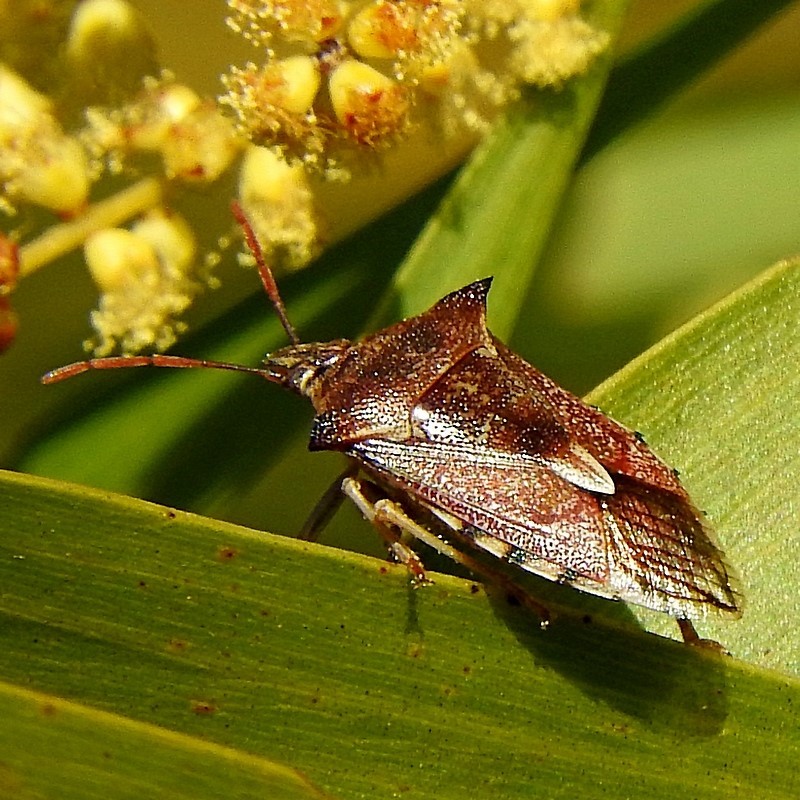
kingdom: Animalia
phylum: Arthropoda
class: Insecta
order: Hemiptera
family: Pentatomidae
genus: Oechalia
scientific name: Oechalia schellenbergii
